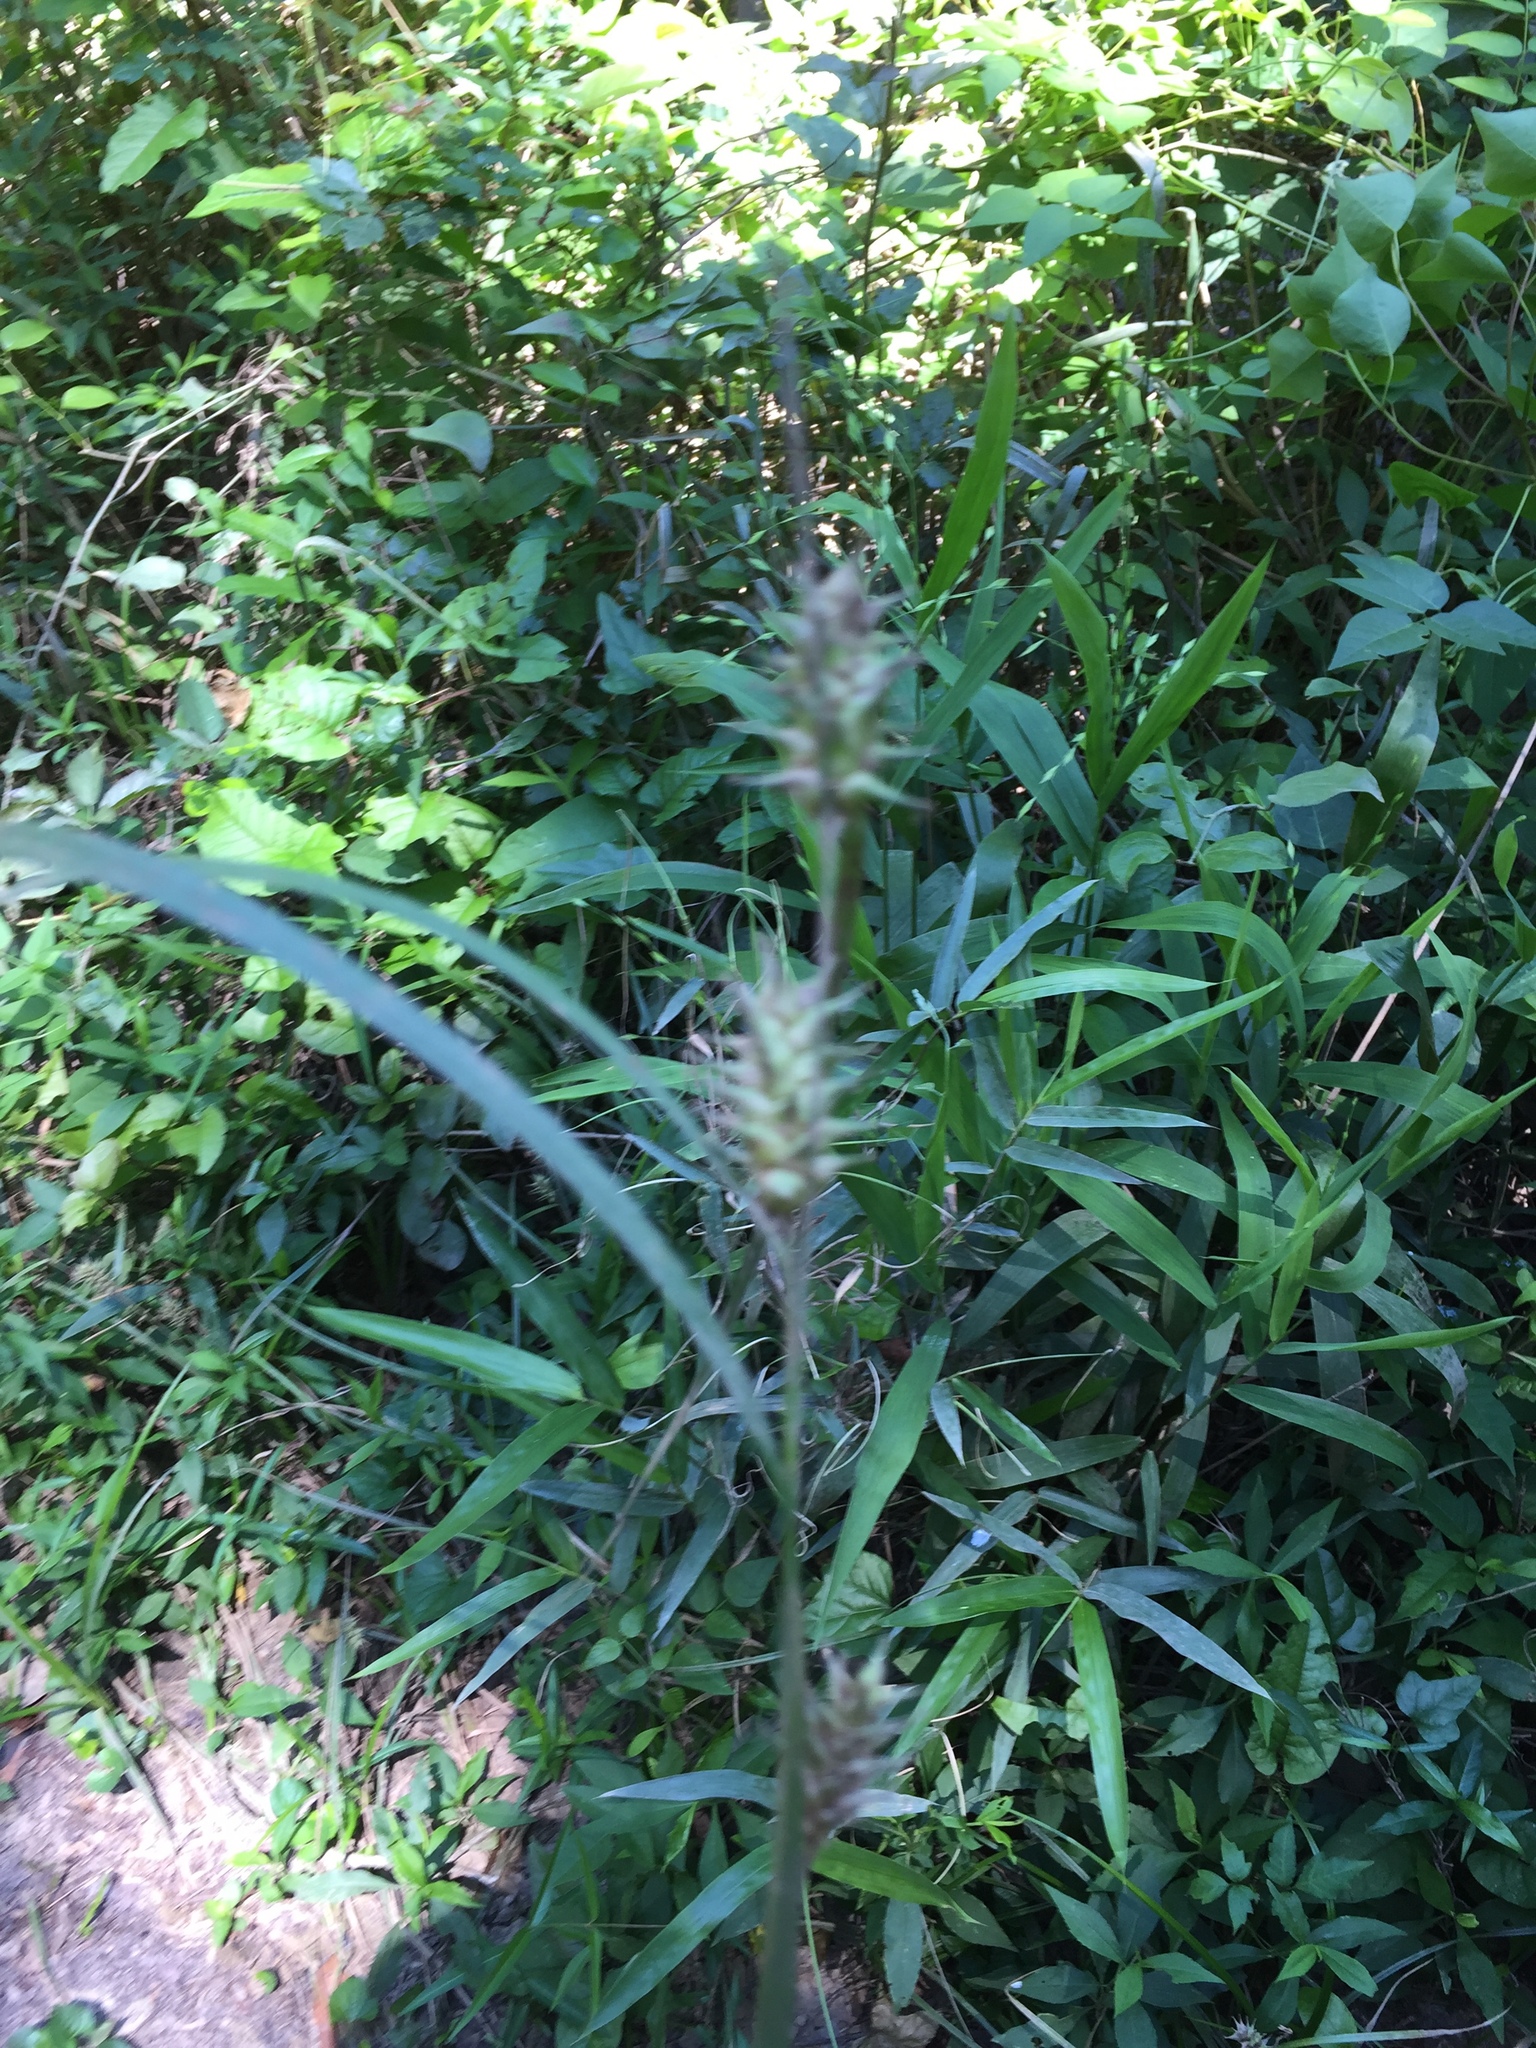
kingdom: Plantae
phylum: Tracheophyta
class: Liliopsida
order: Poales
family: Cyperaceae
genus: Carex
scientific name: Carex louisianica
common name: Louisiana sedge
